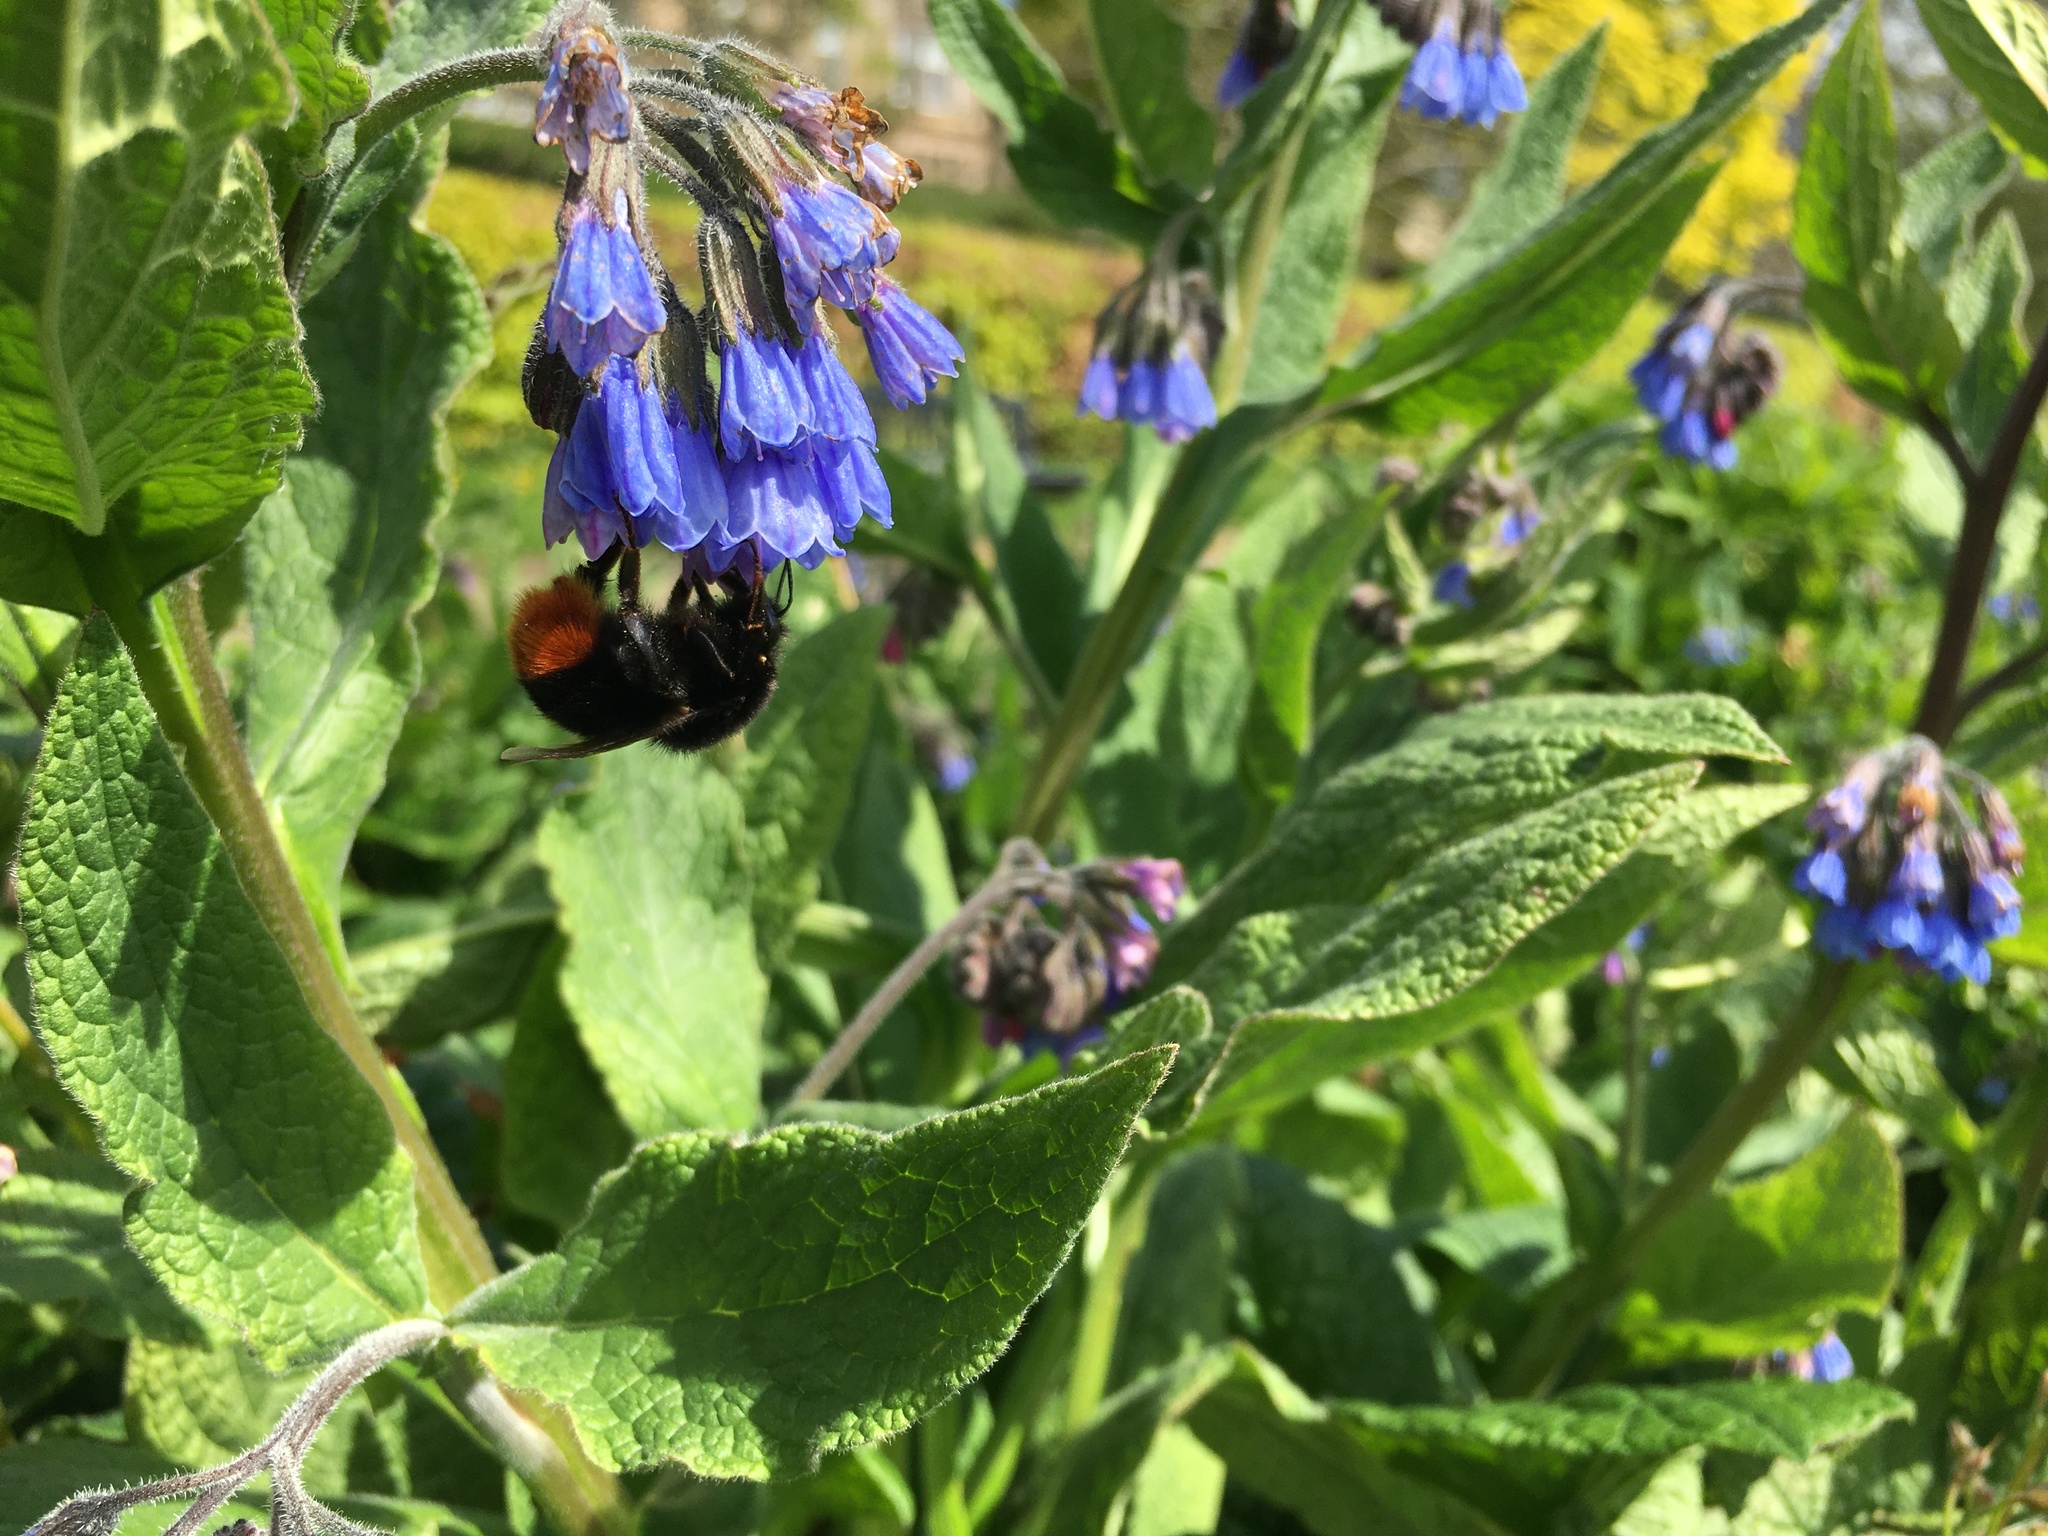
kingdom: Animalia
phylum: Arthropoda
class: Insecta
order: Hymenoptera
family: Apidae
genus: Bombus
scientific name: Bombus lapidarius
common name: Large red-tailed humble-bee
